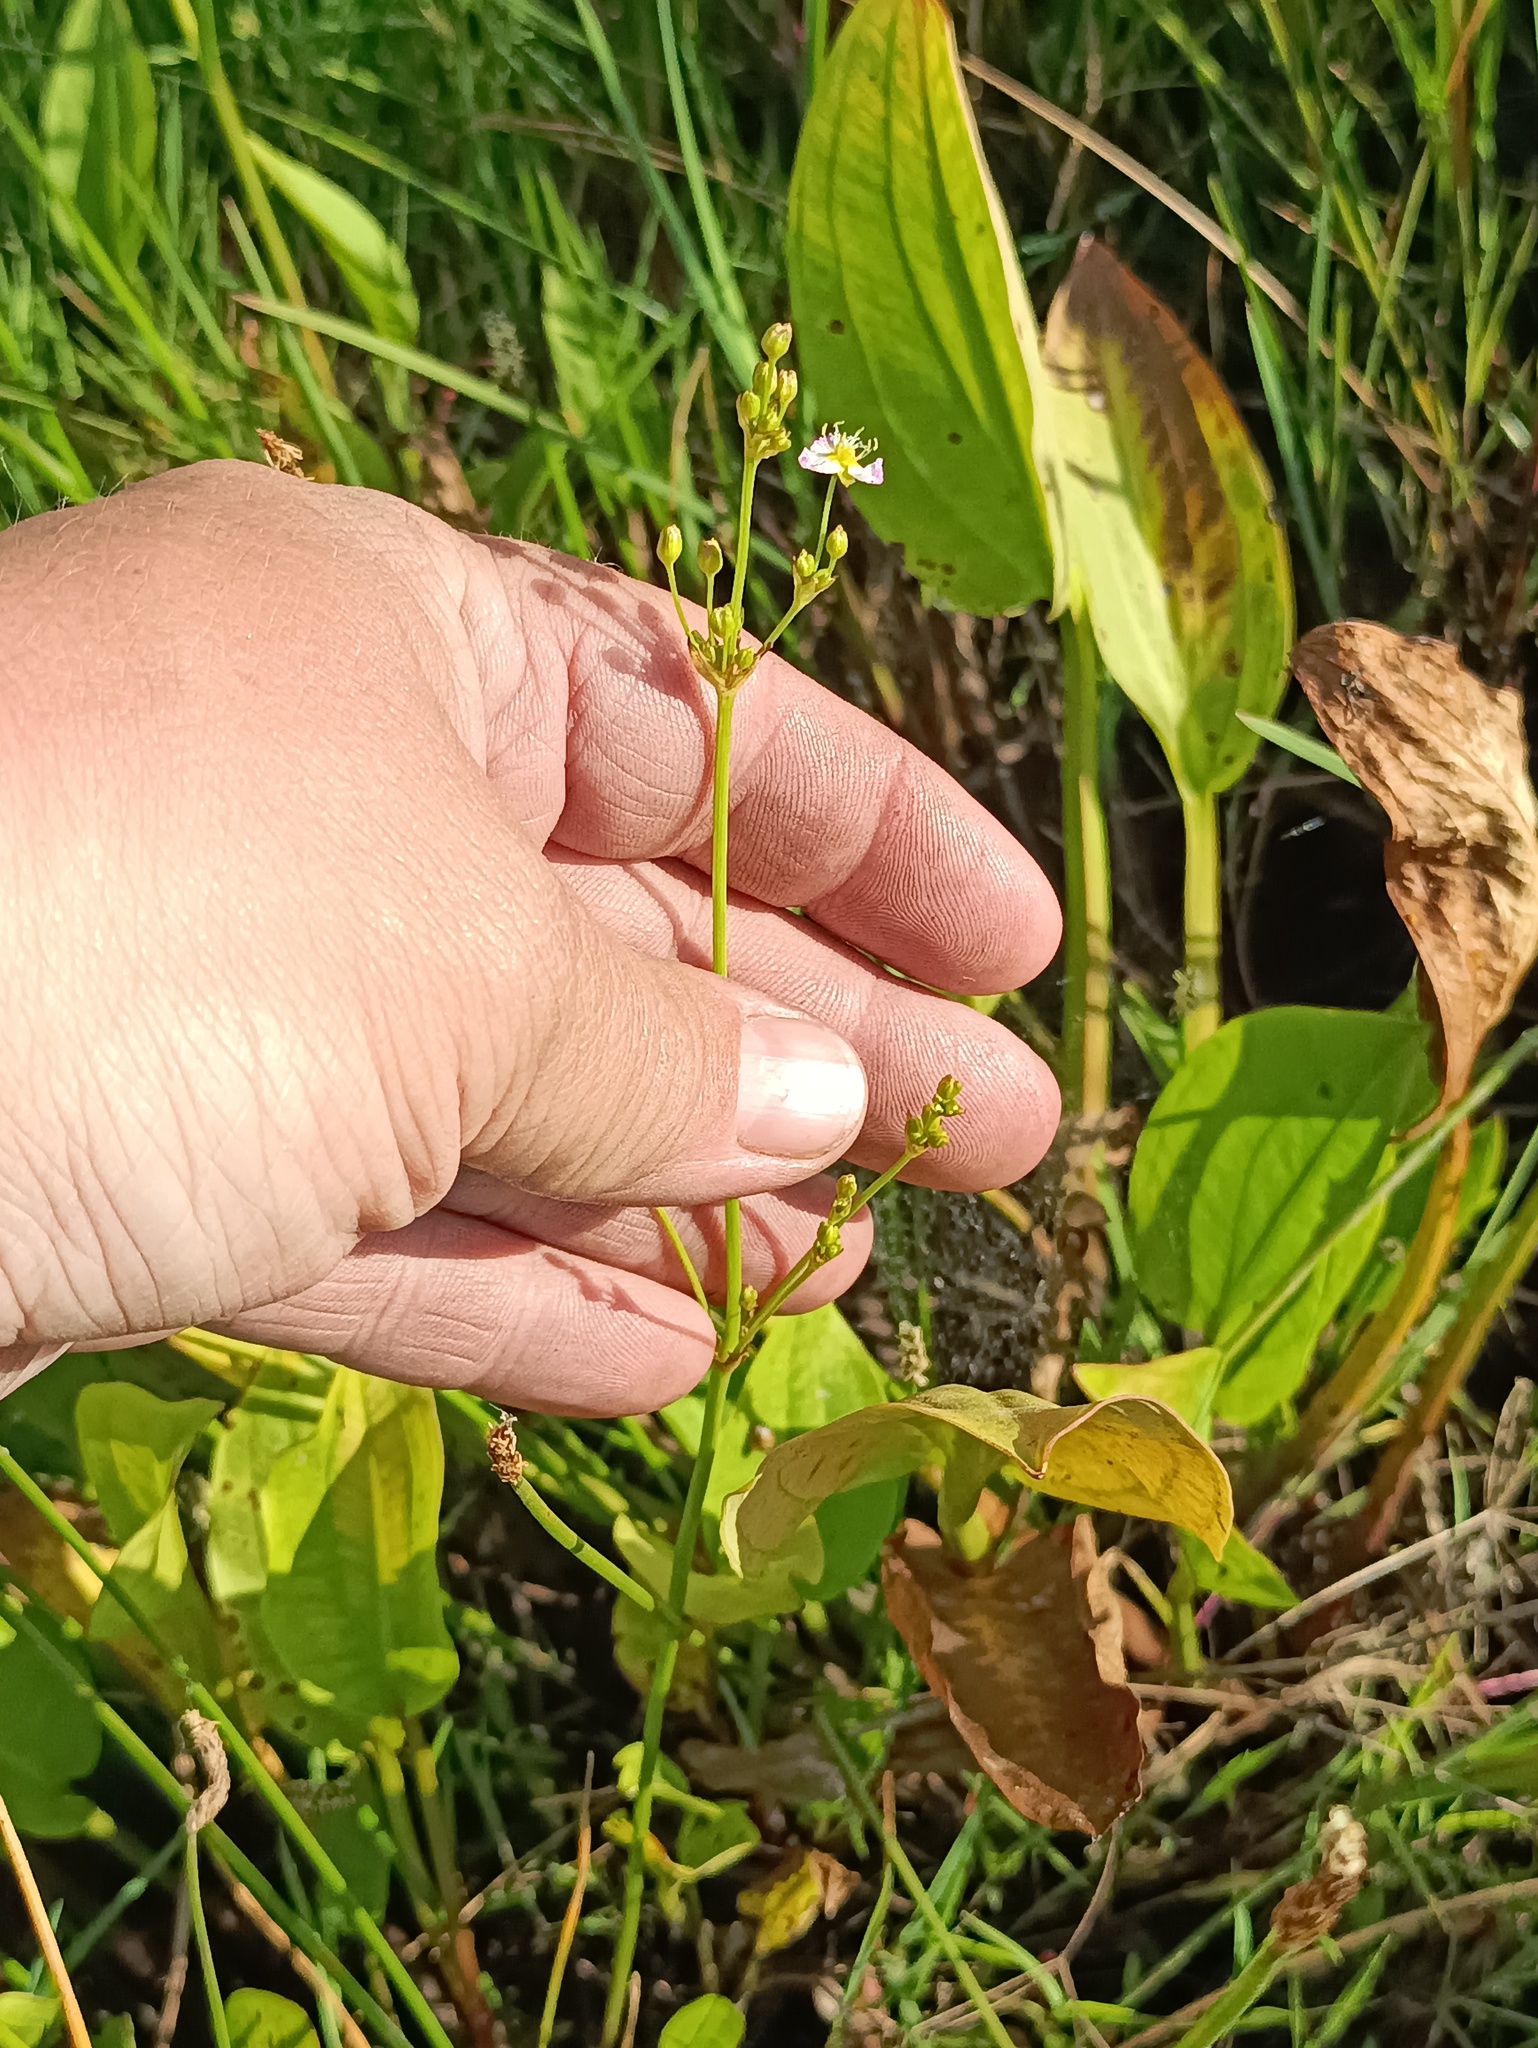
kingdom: Plantae
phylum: Tracheophyta
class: Liliopsida
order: Alismatales
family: Alismataceae
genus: Alisma
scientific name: Alisma plantago-aquatica
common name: Water-plantain
